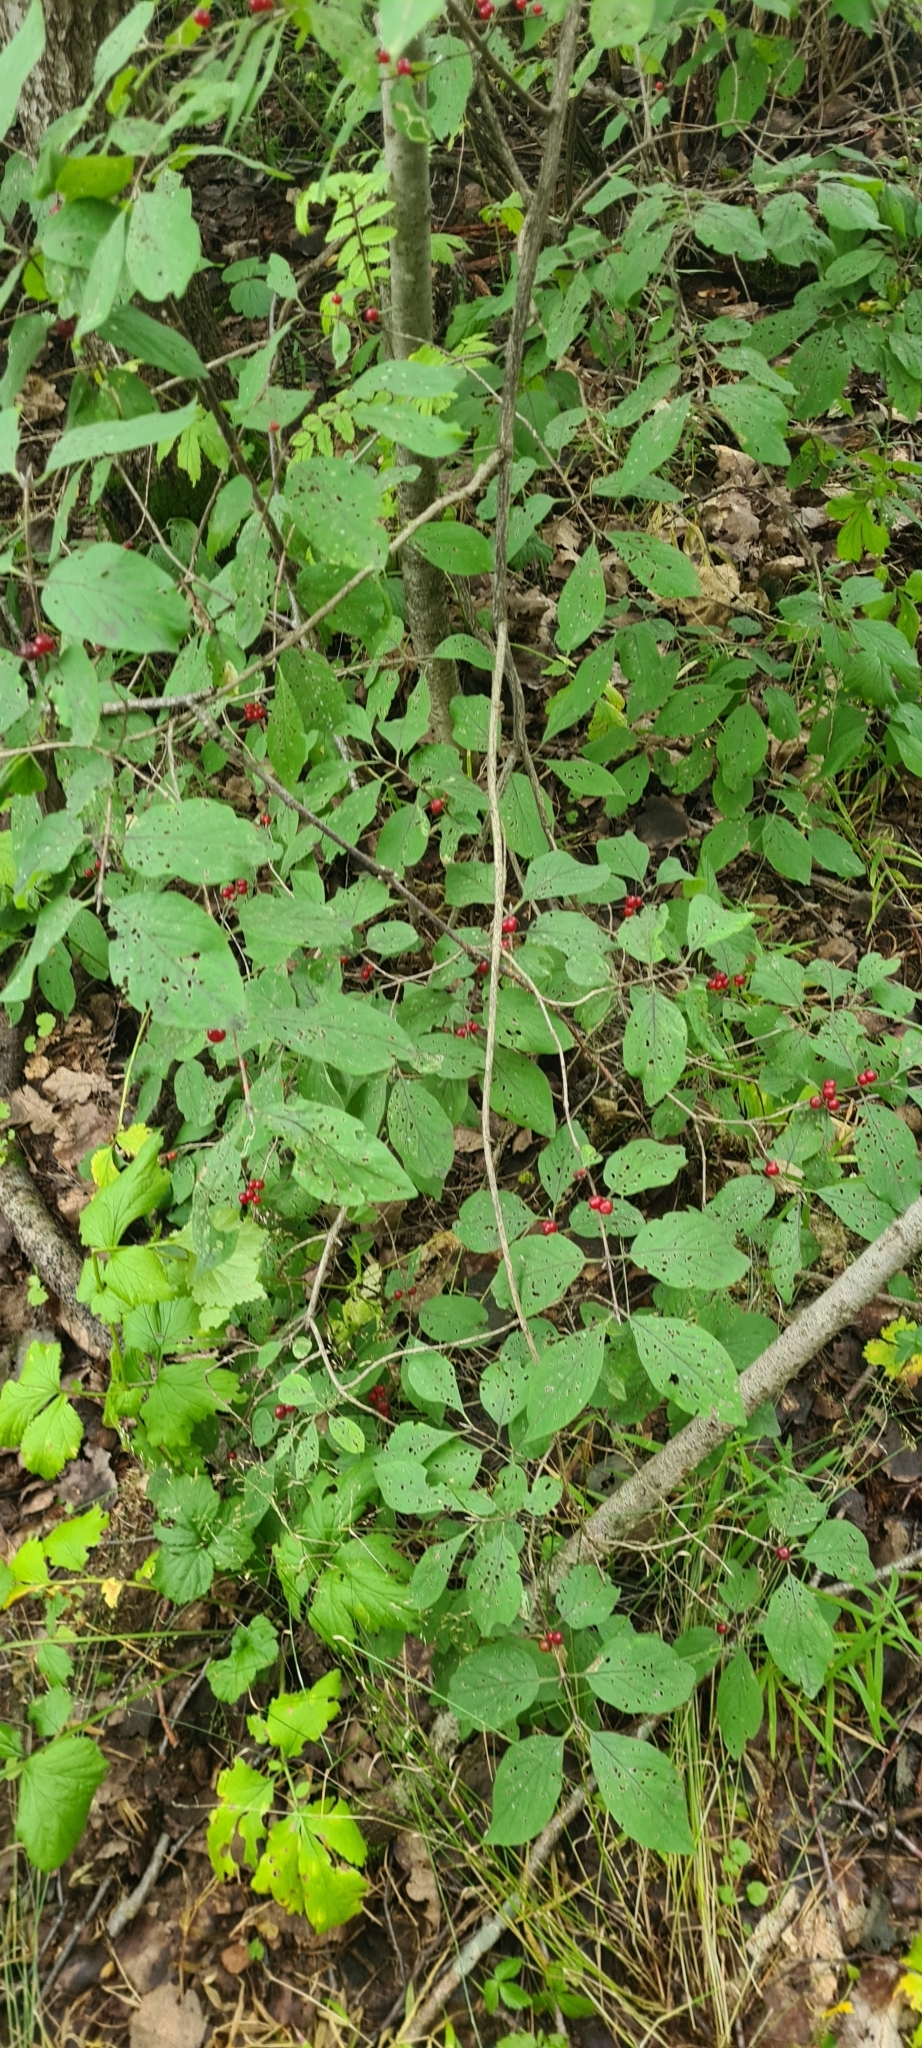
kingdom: Plantae
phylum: Tracheophyta
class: Magnoliopsida
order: Dipsacales
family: Caprifoliaceae
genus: Lonicera
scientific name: Lonicera xylosteum
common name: Fly honeysuckle
